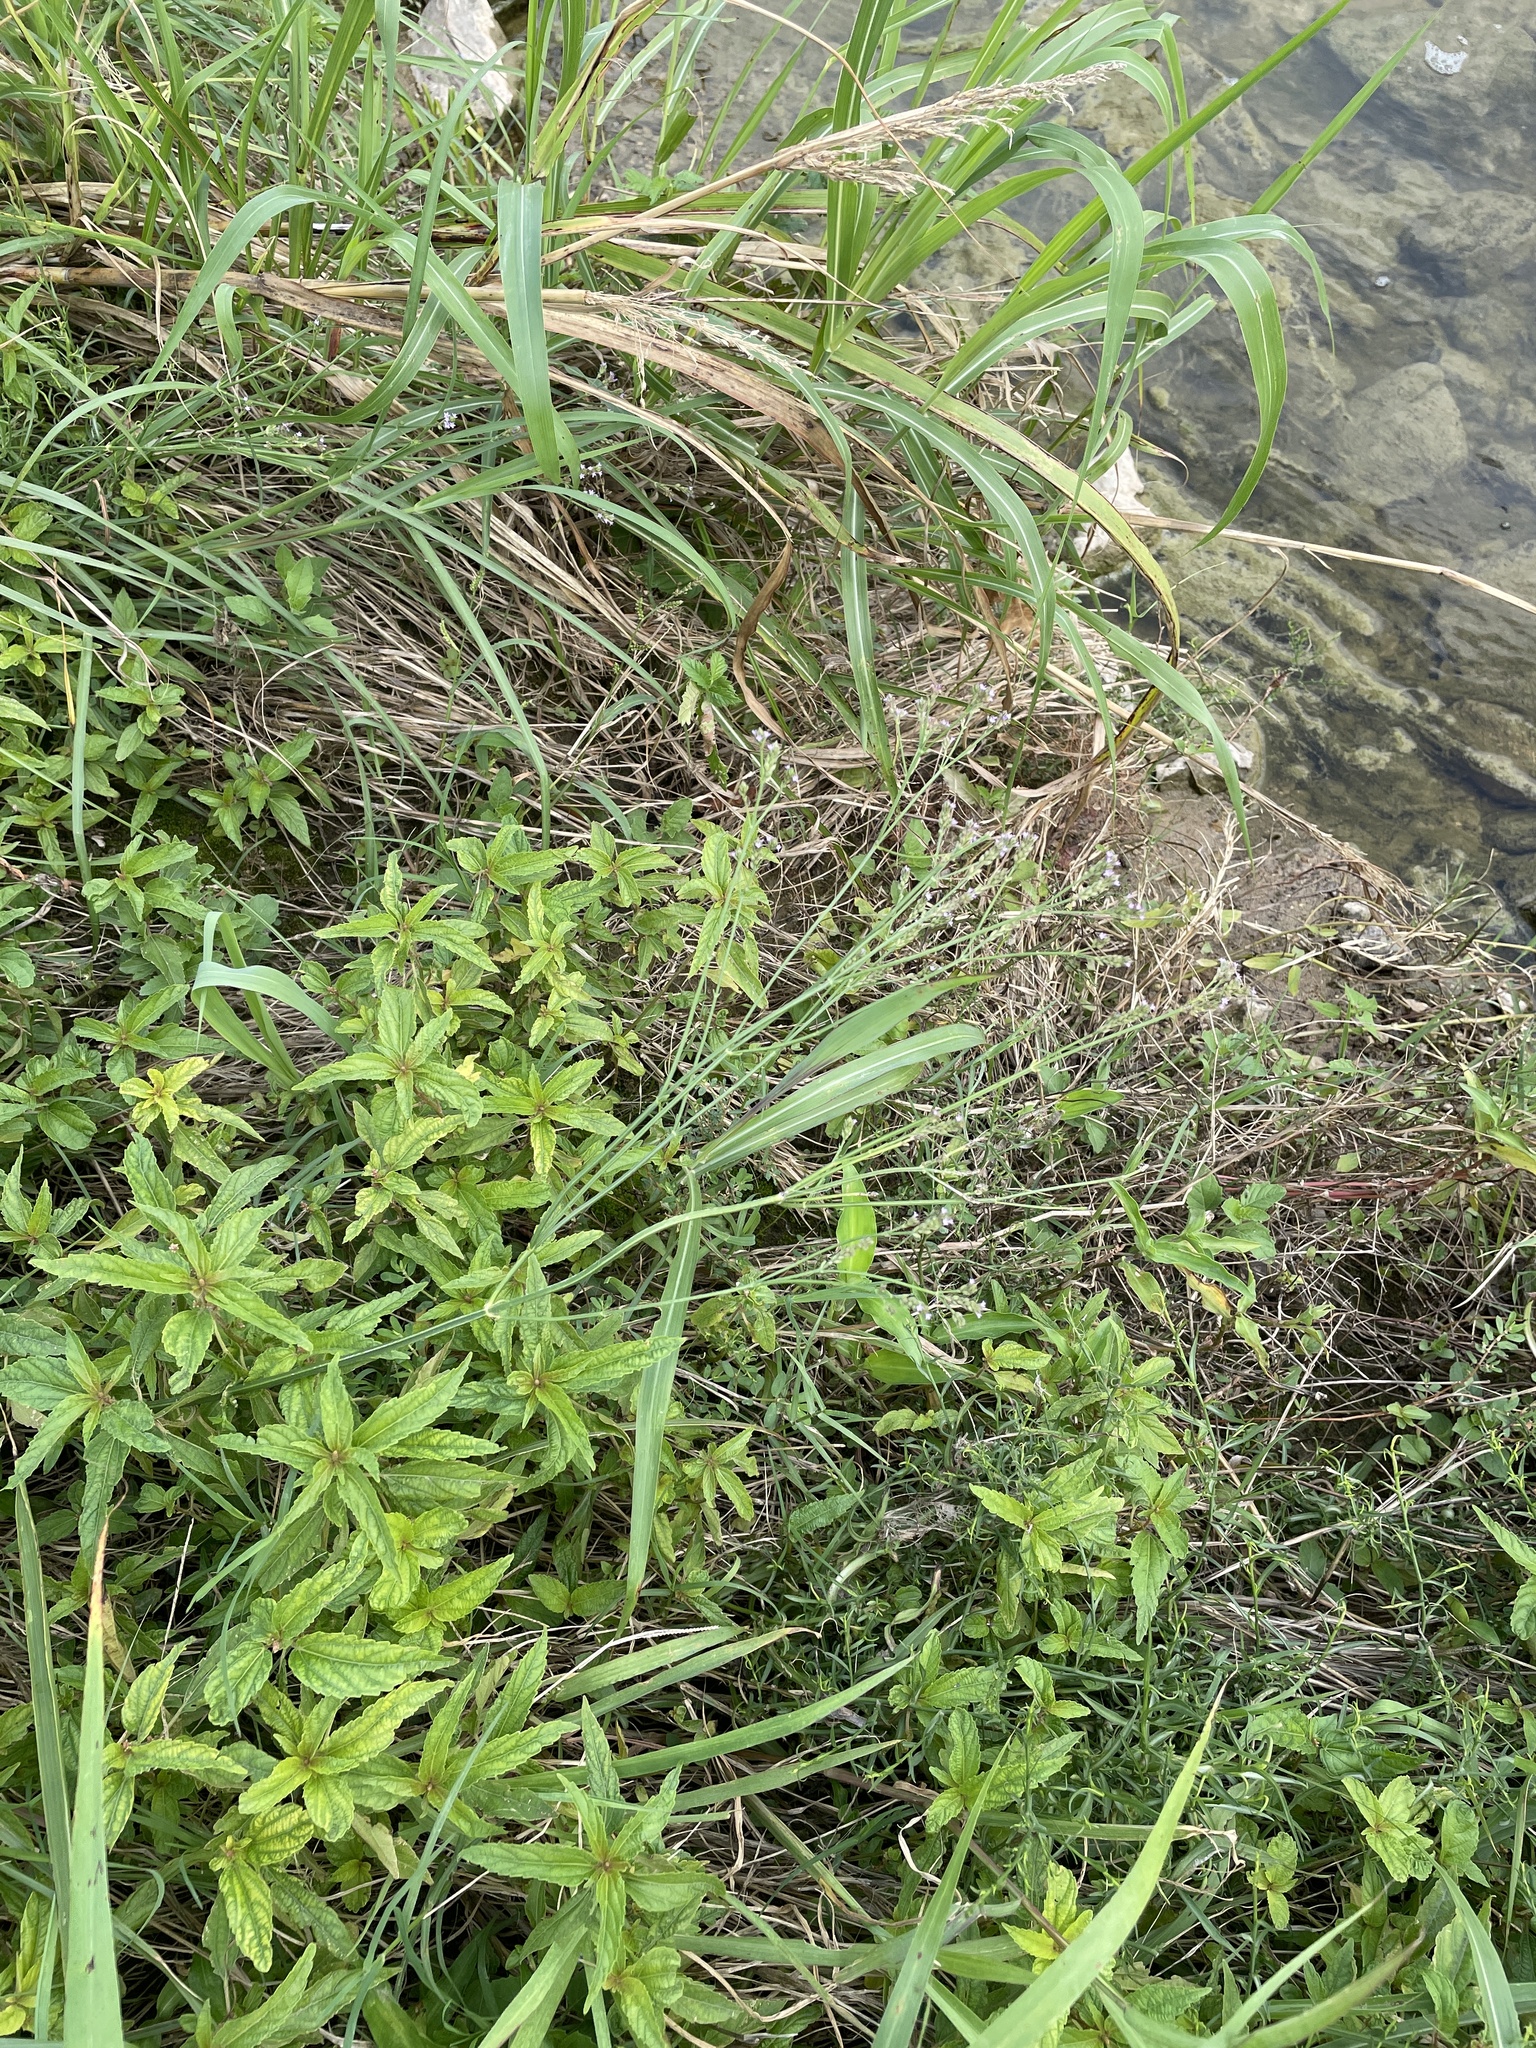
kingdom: Plantae
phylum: Tracheophyta
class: Magnoliopsida
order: Lamiales
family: Verbenaceae
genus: Verbena
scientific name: Verbena brasiliensis
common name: Brazilian vervain
